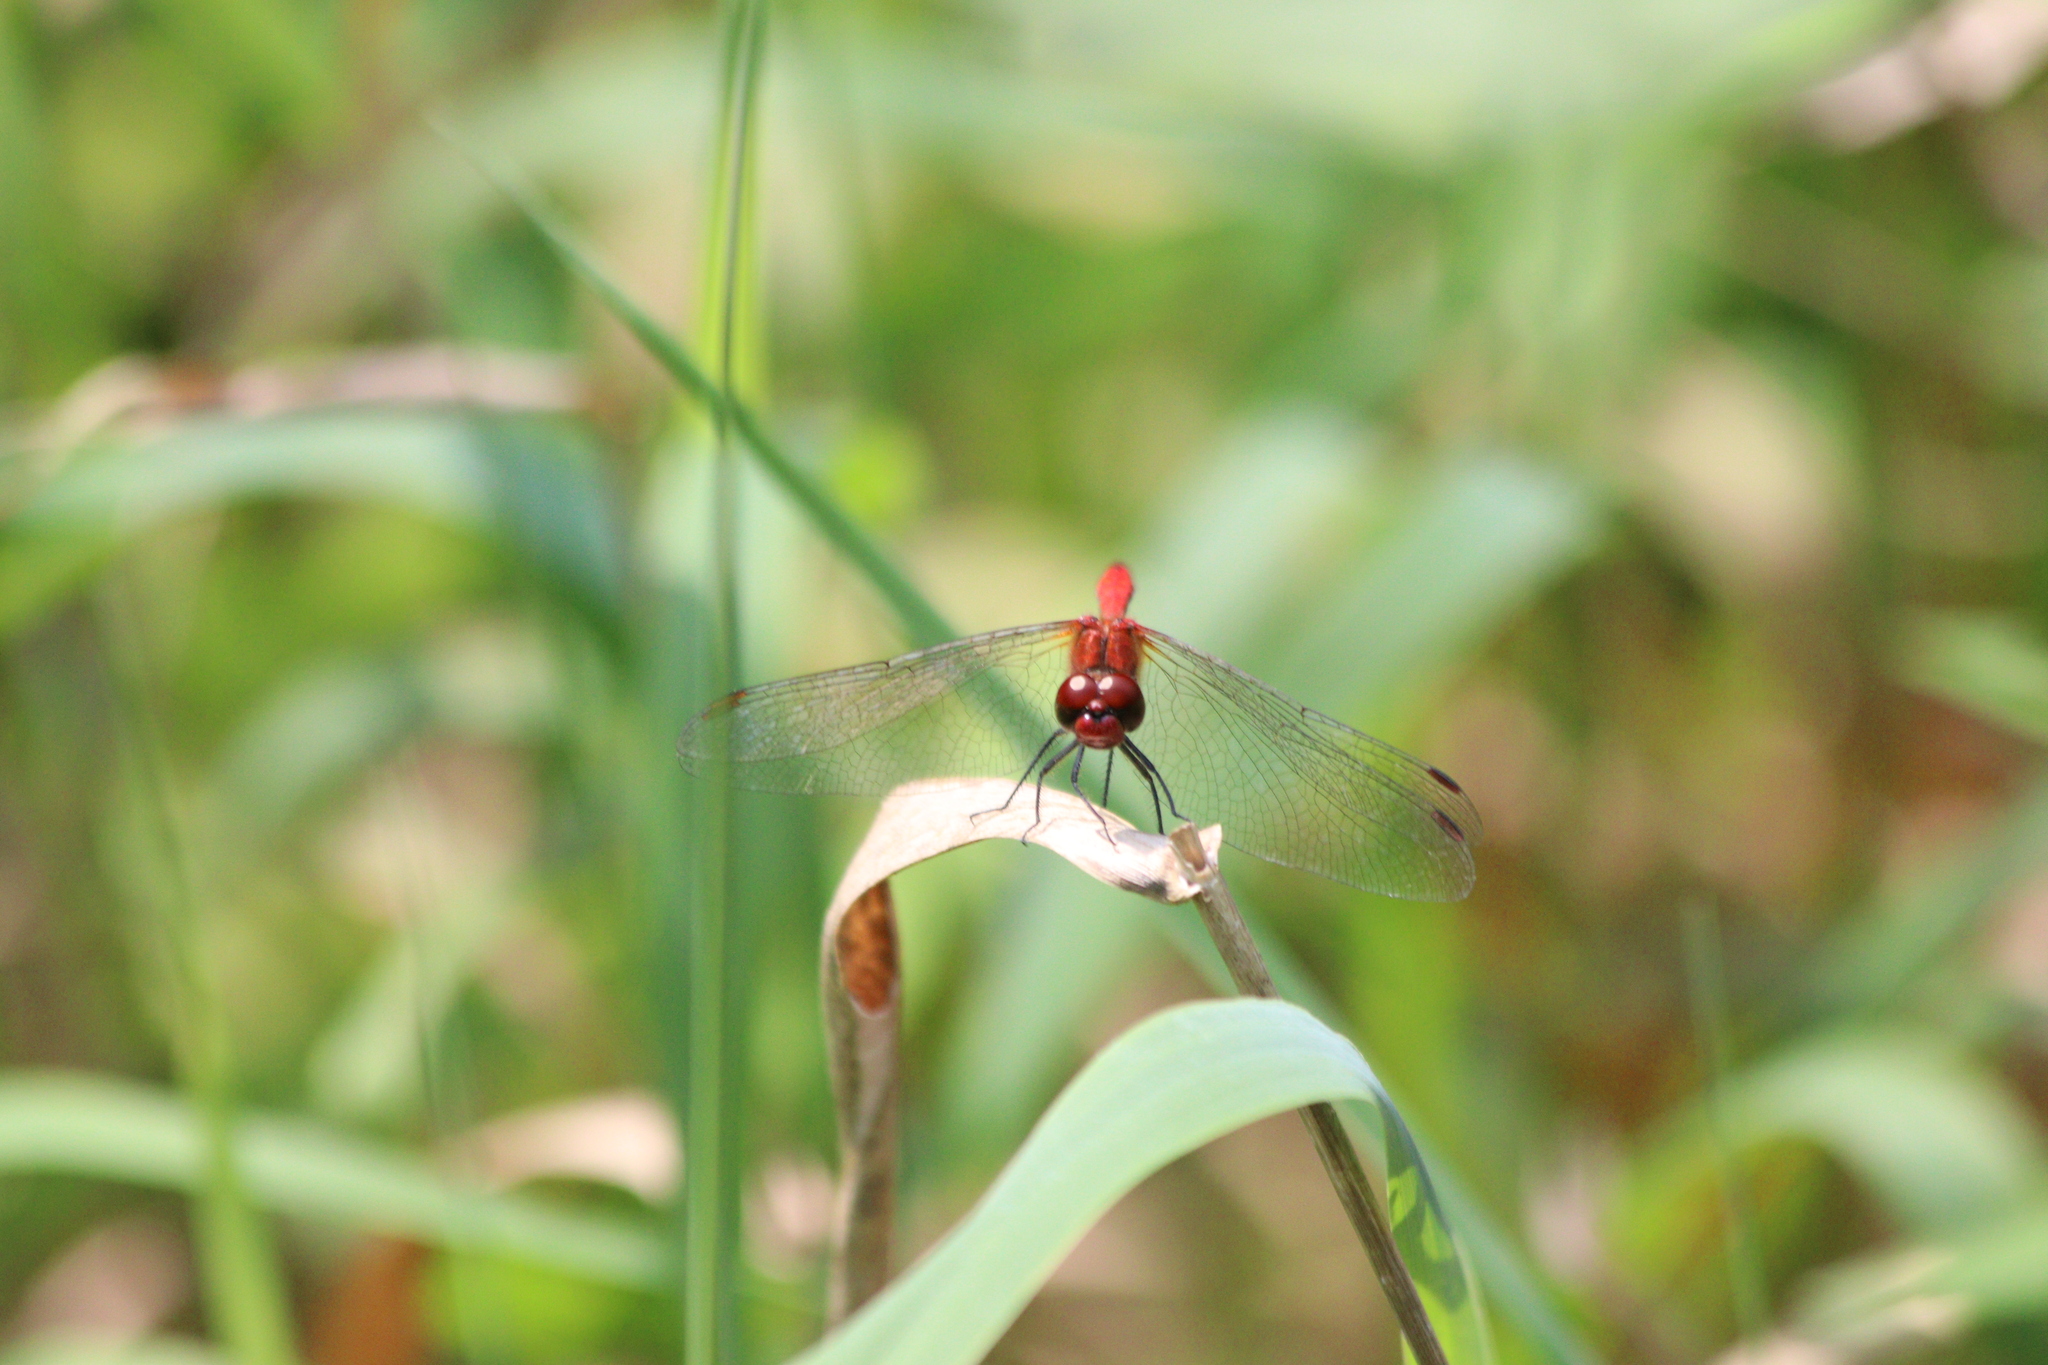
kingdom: Animalia
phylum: Arthropoda
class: Insecta
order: Odonata
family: Libellulidae
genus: Sympetrum
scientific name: Sympetrum sanguineum
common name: Ruddy darter
